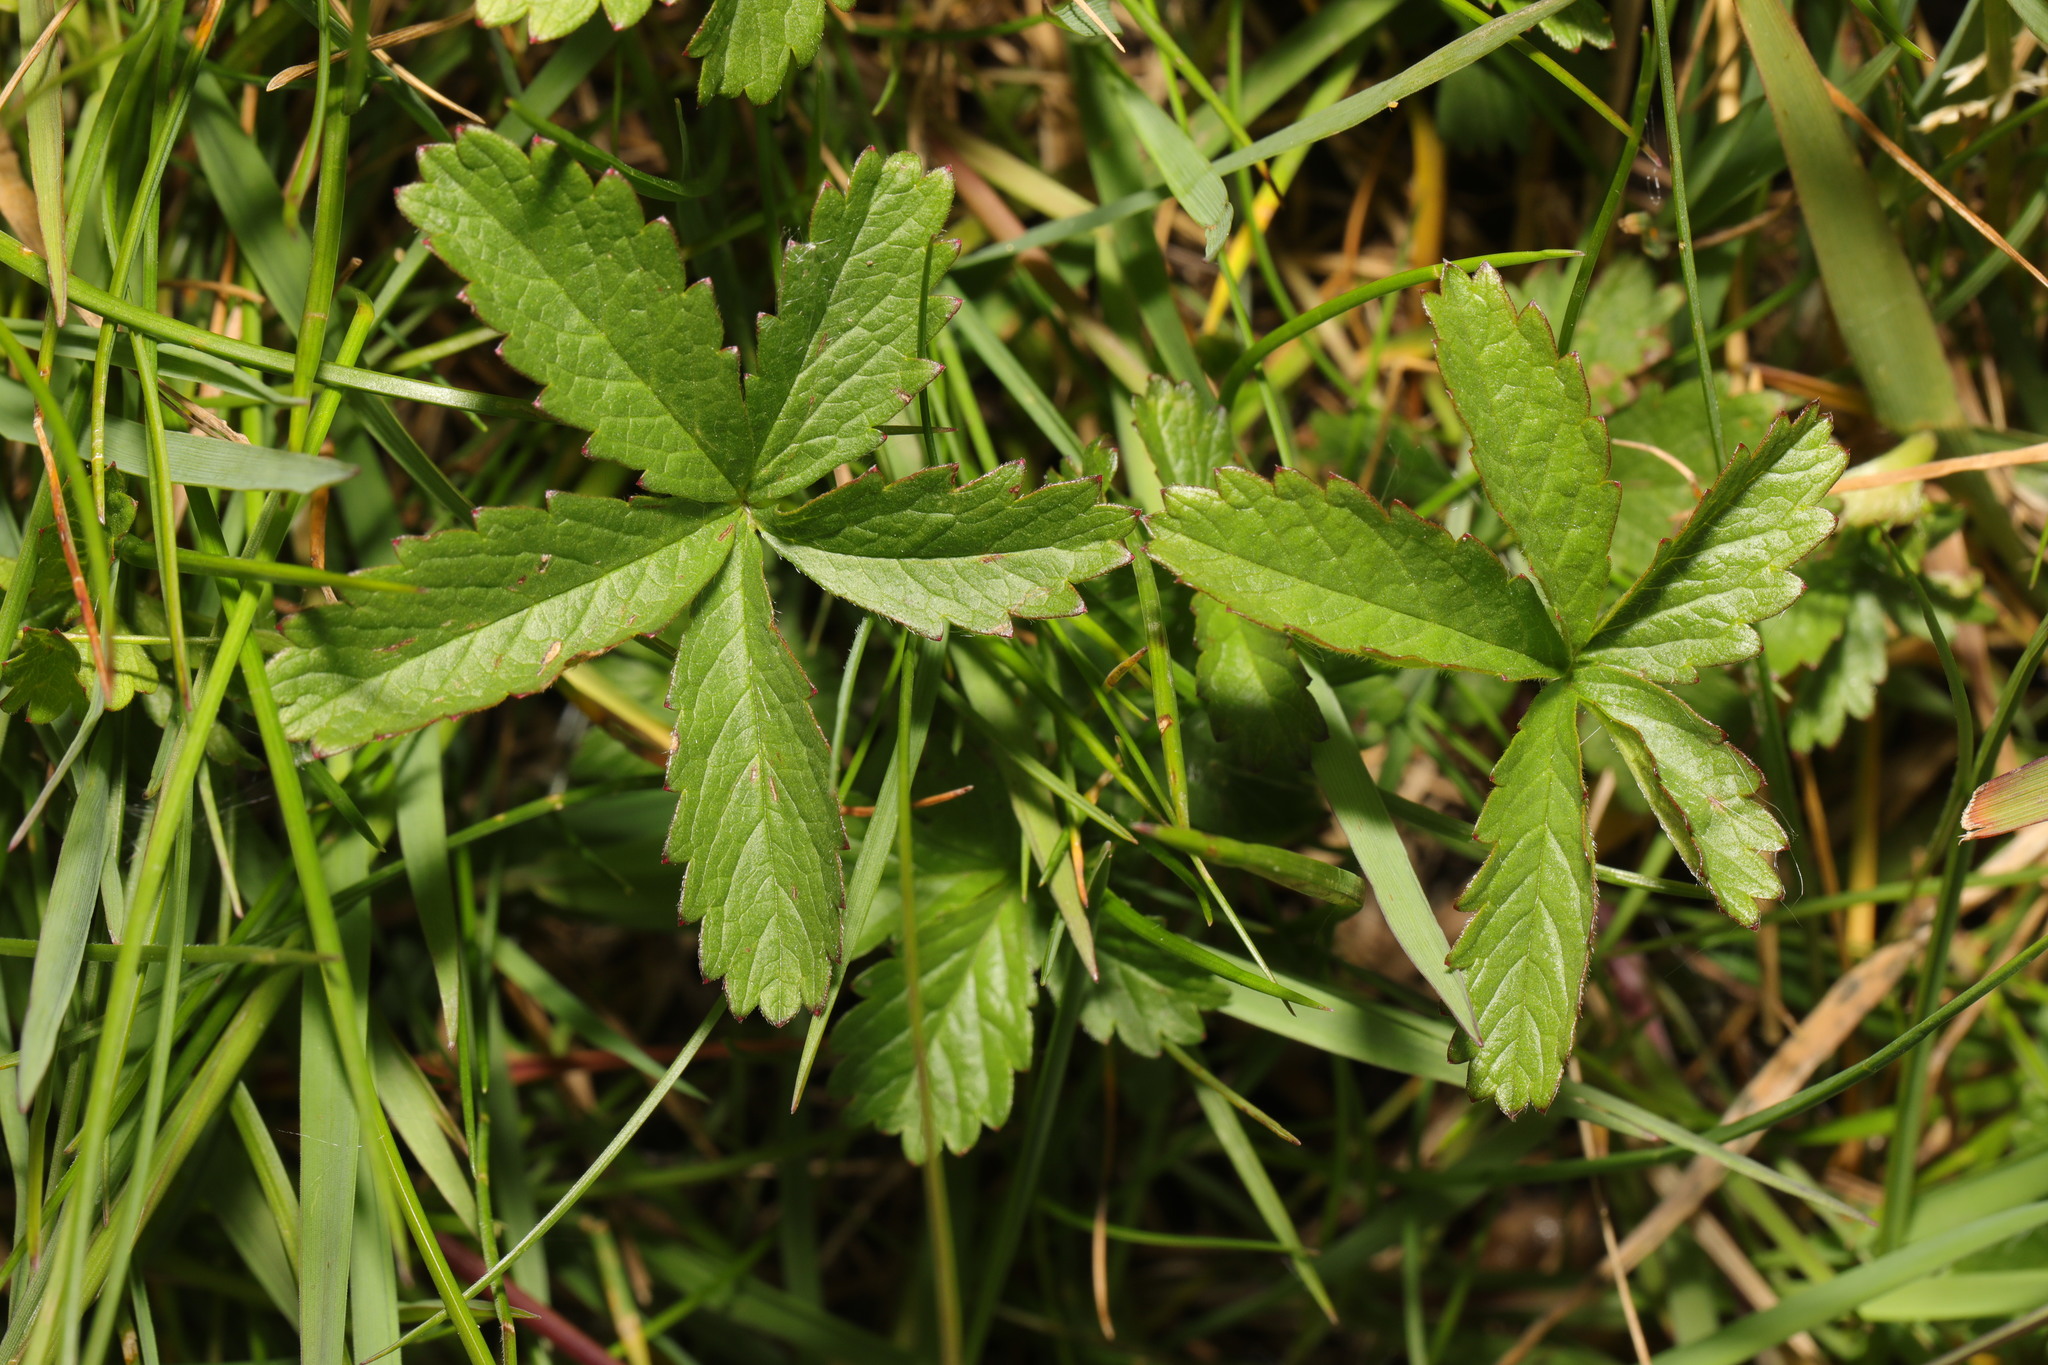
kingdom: Plantae
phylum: Tracheophyta
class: Magnoliopsida
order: Rosales
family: Rosaceae
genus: Potentilla
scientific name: Potentilla reptans
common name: Creeping cinquefoil
